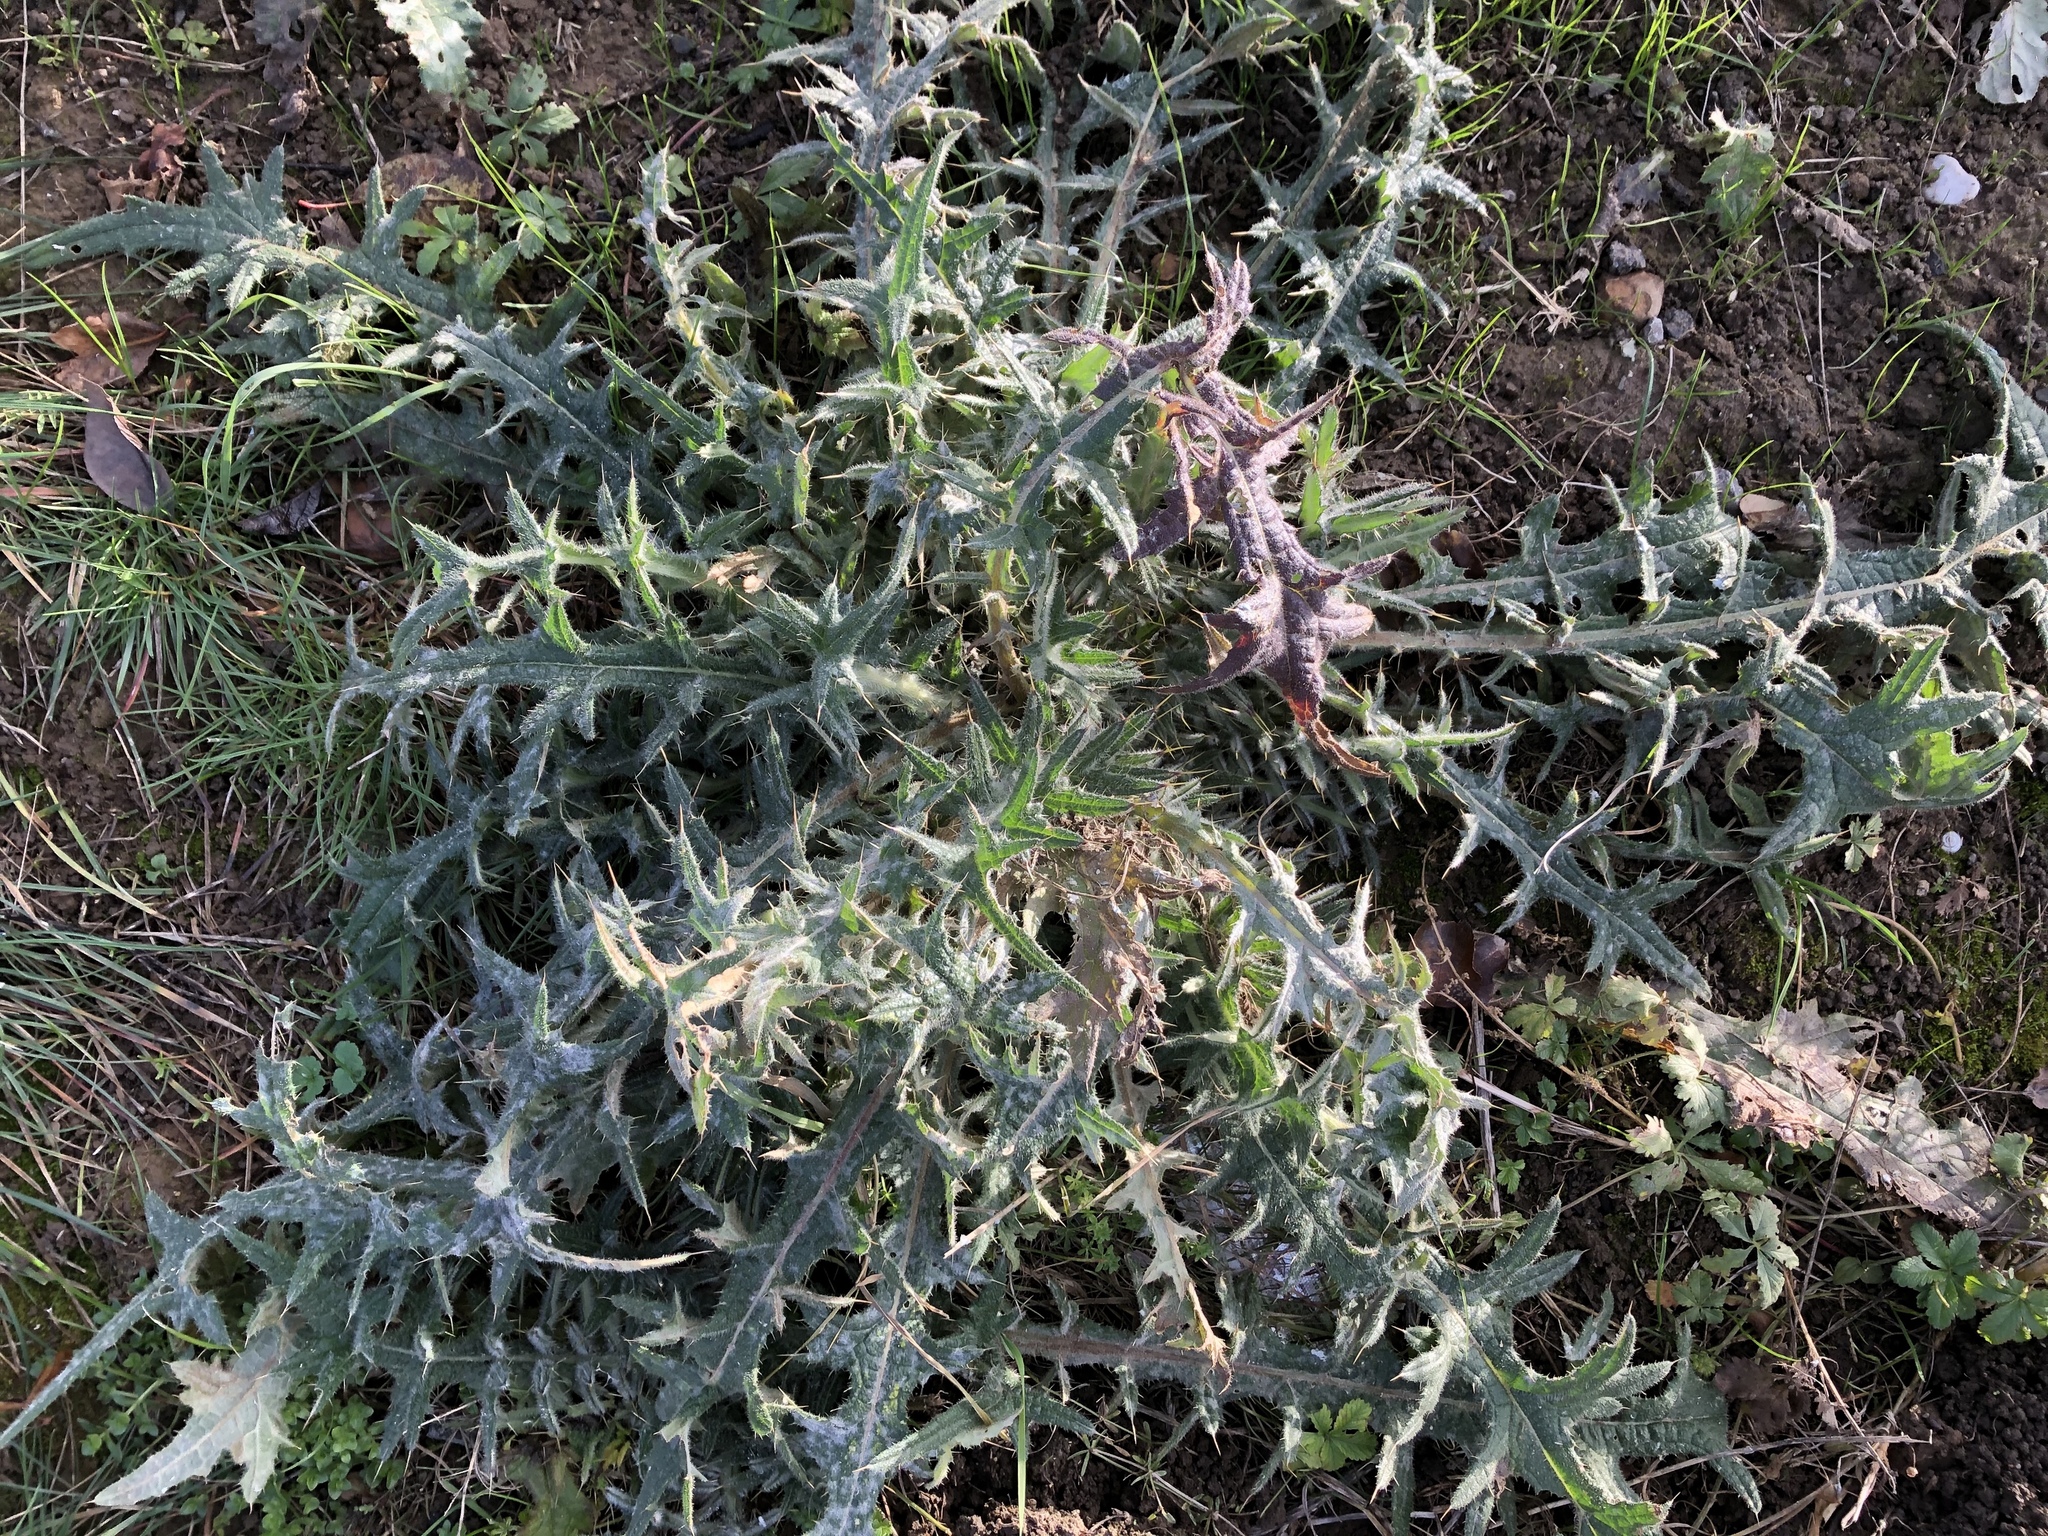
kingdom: Plantae
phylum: Tracheophyta
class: Magnoliopsida
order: Asterales
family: Asteraceae
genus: Cirsium
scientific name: Cirsium vulgare
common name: Bull thistle
